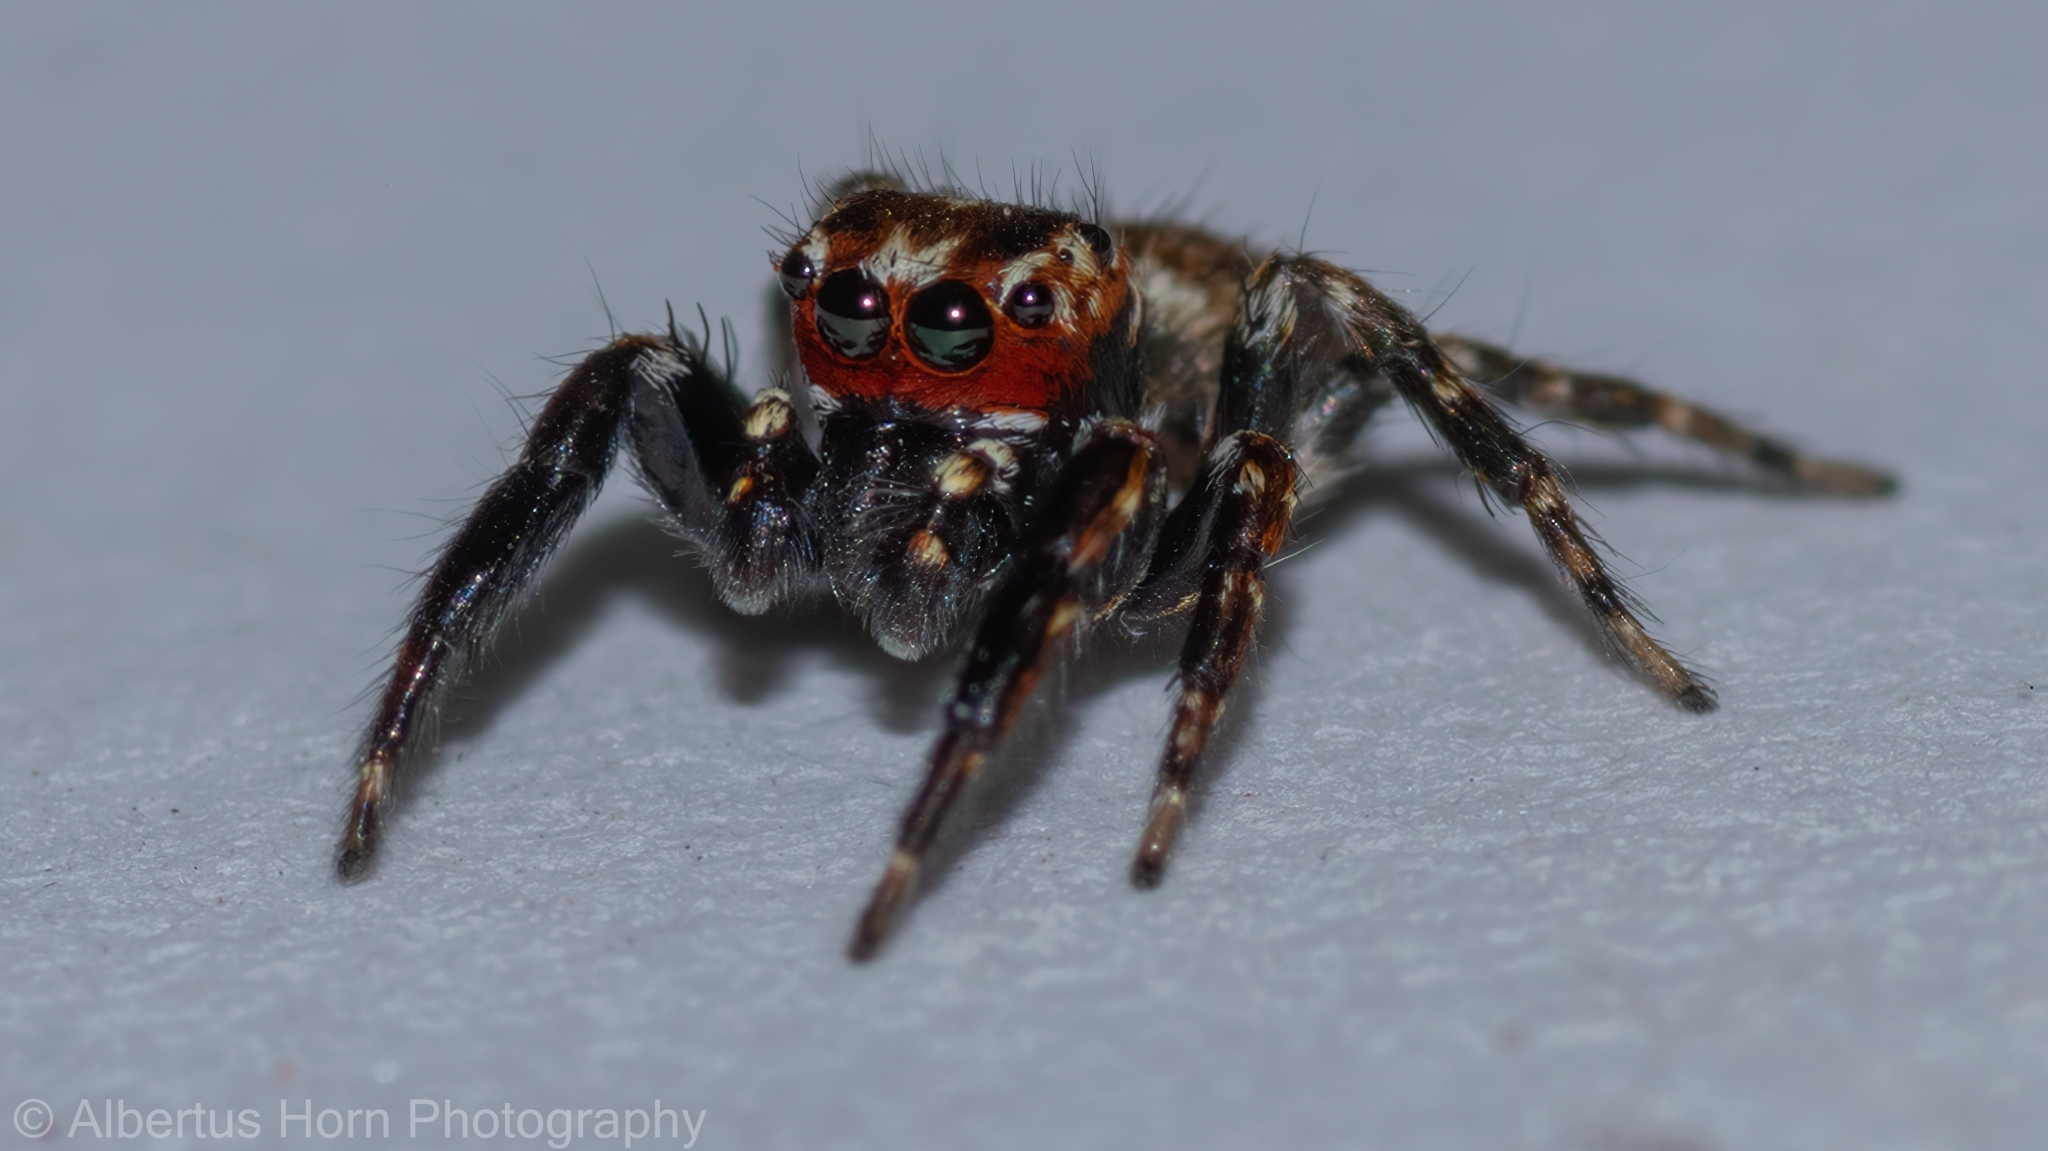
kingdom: Animalia
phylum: Arthropoda
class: Arachnida
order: Araneae
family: Salticidae
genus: Evarcha
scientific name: Evarcha prosimilis
